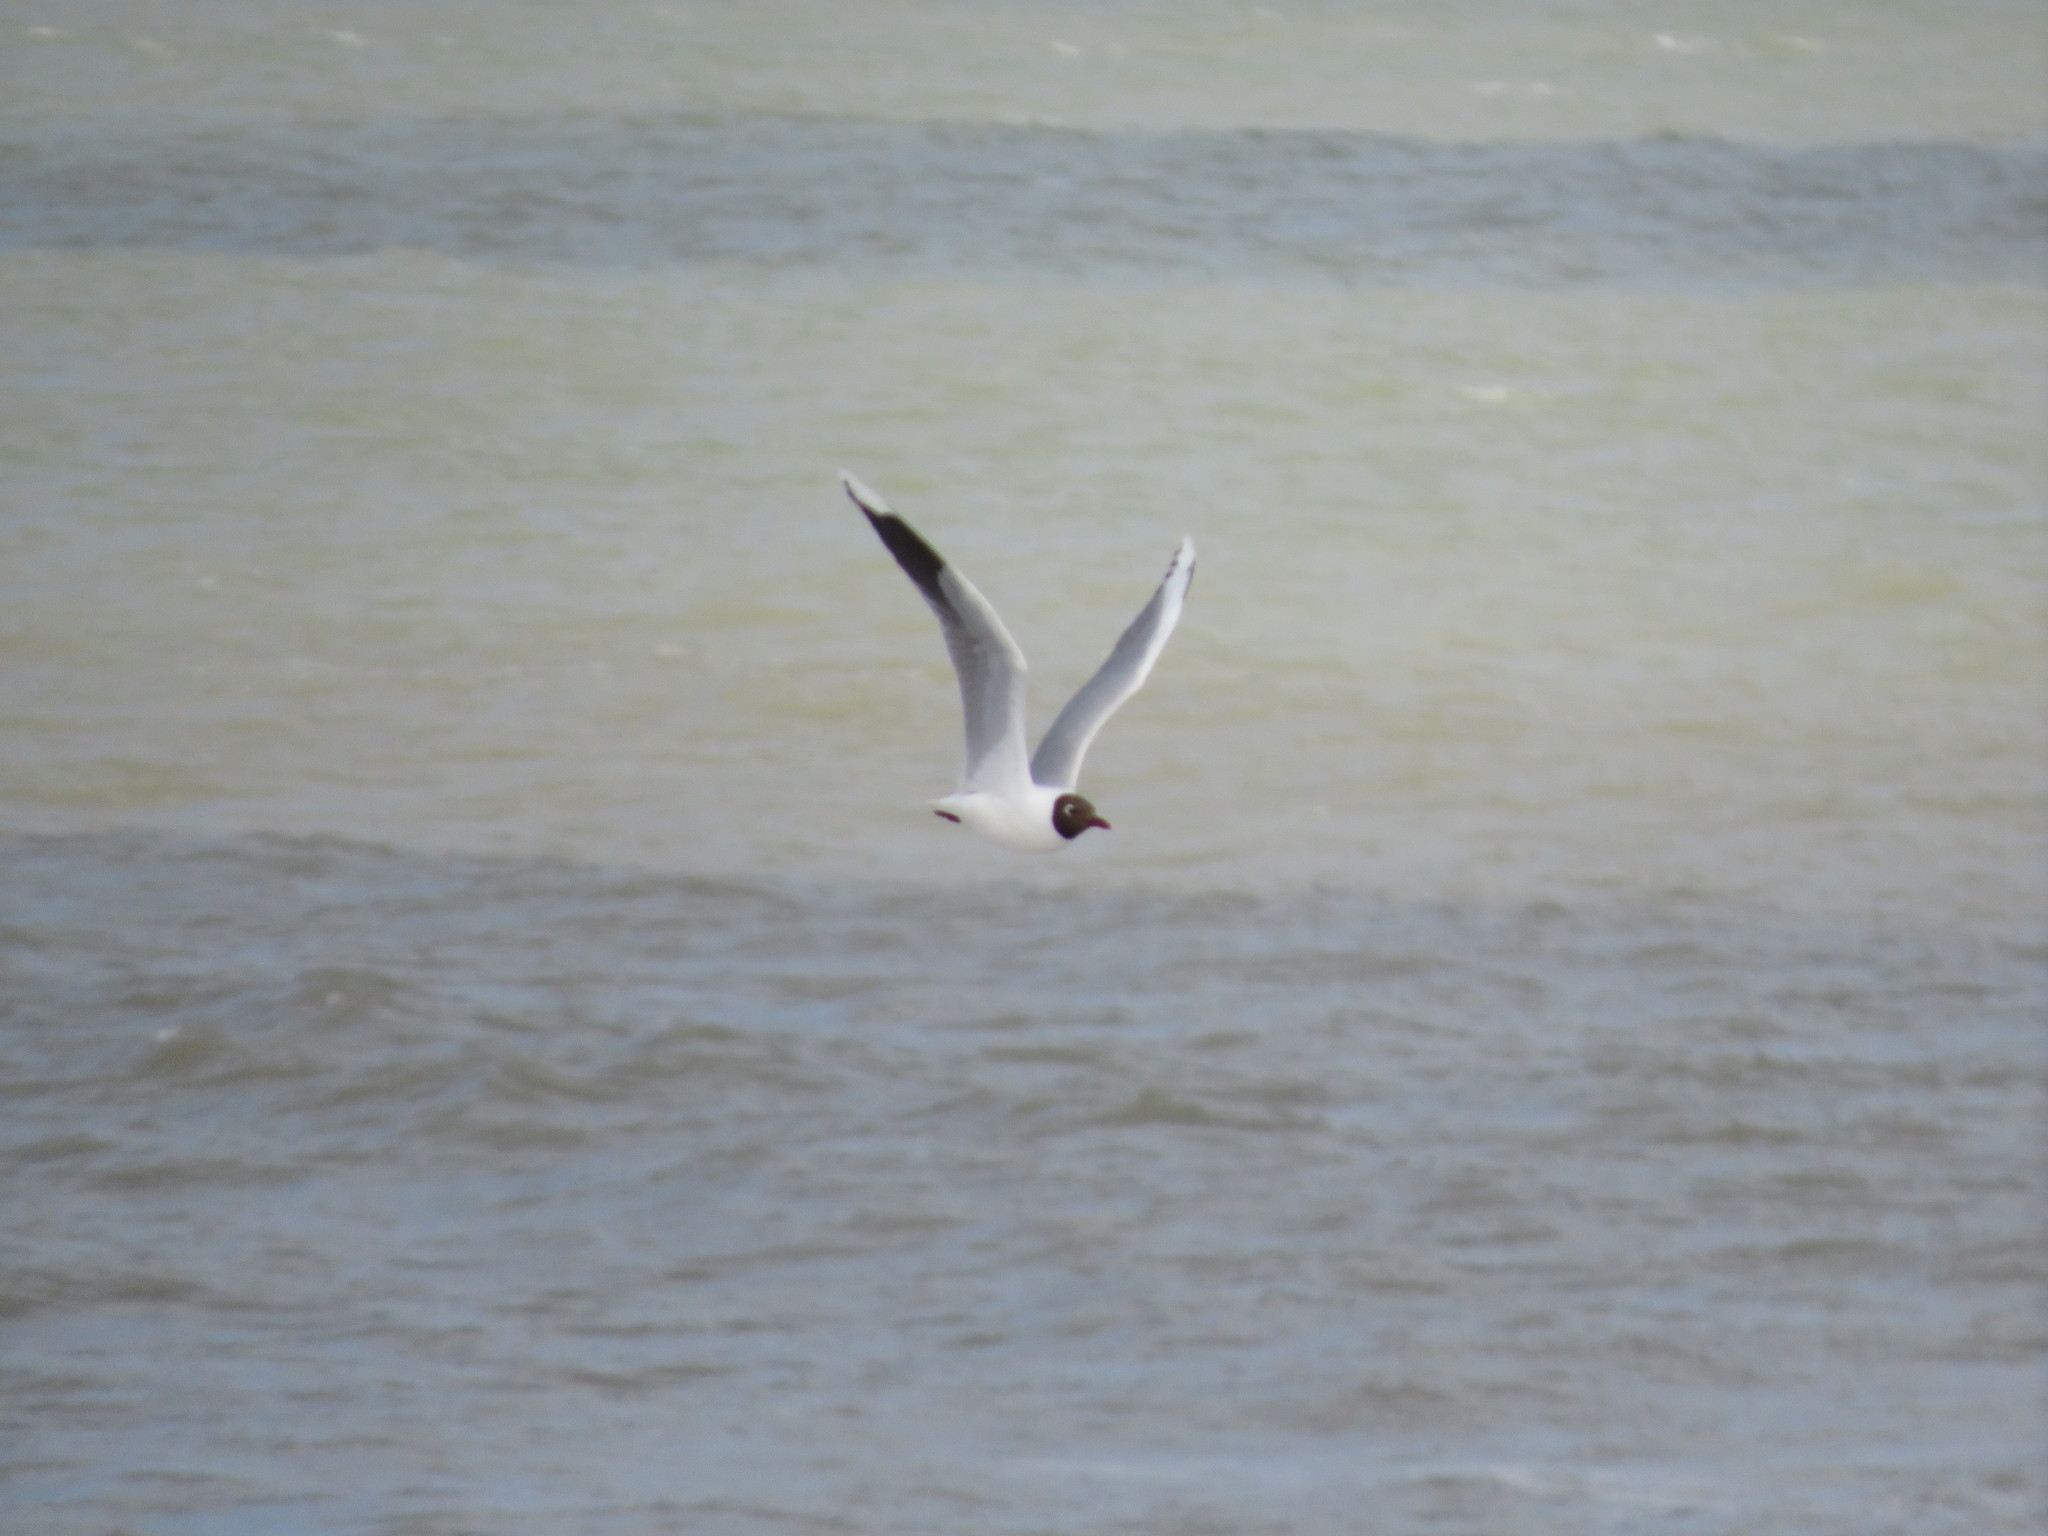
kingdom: Animalia
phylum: Chordata
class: Aves
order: Charadriiformes
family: Laridae
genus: Chroicocephalus
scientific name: Chroicocephalus maculipennis
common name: Brown-hooded gull
